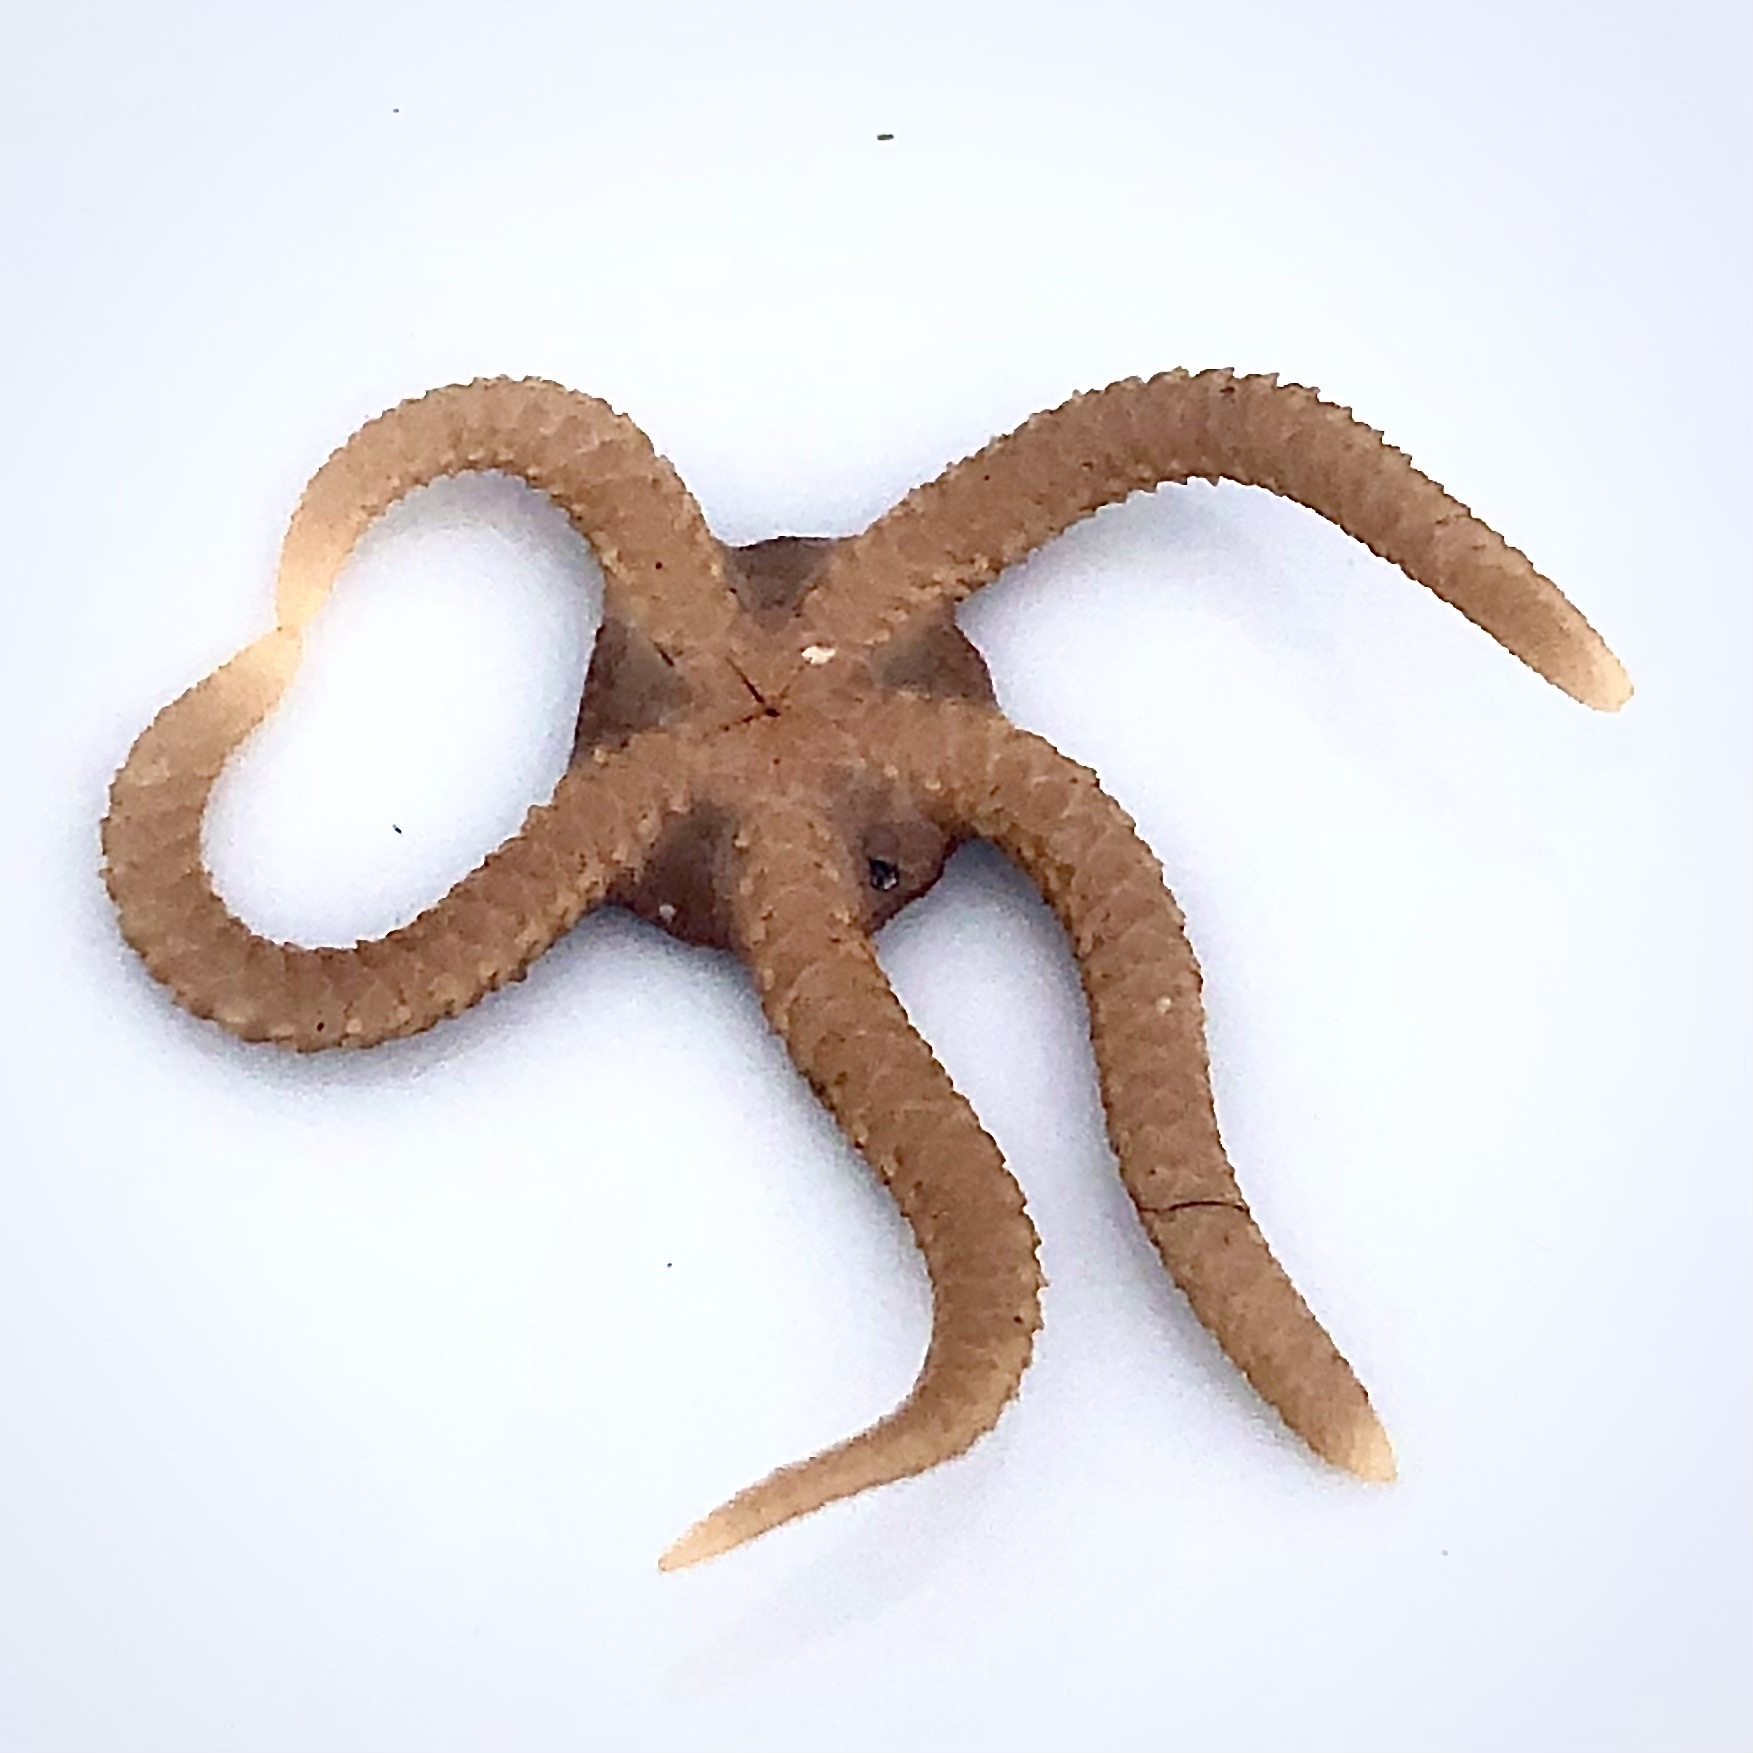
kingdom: Animalia
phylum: Echinodermata
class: Ophiuroidea
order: Amphilepidida
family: Hemieuryalidae
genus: Ophioplocus
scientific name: Ophioplocus esmarki
